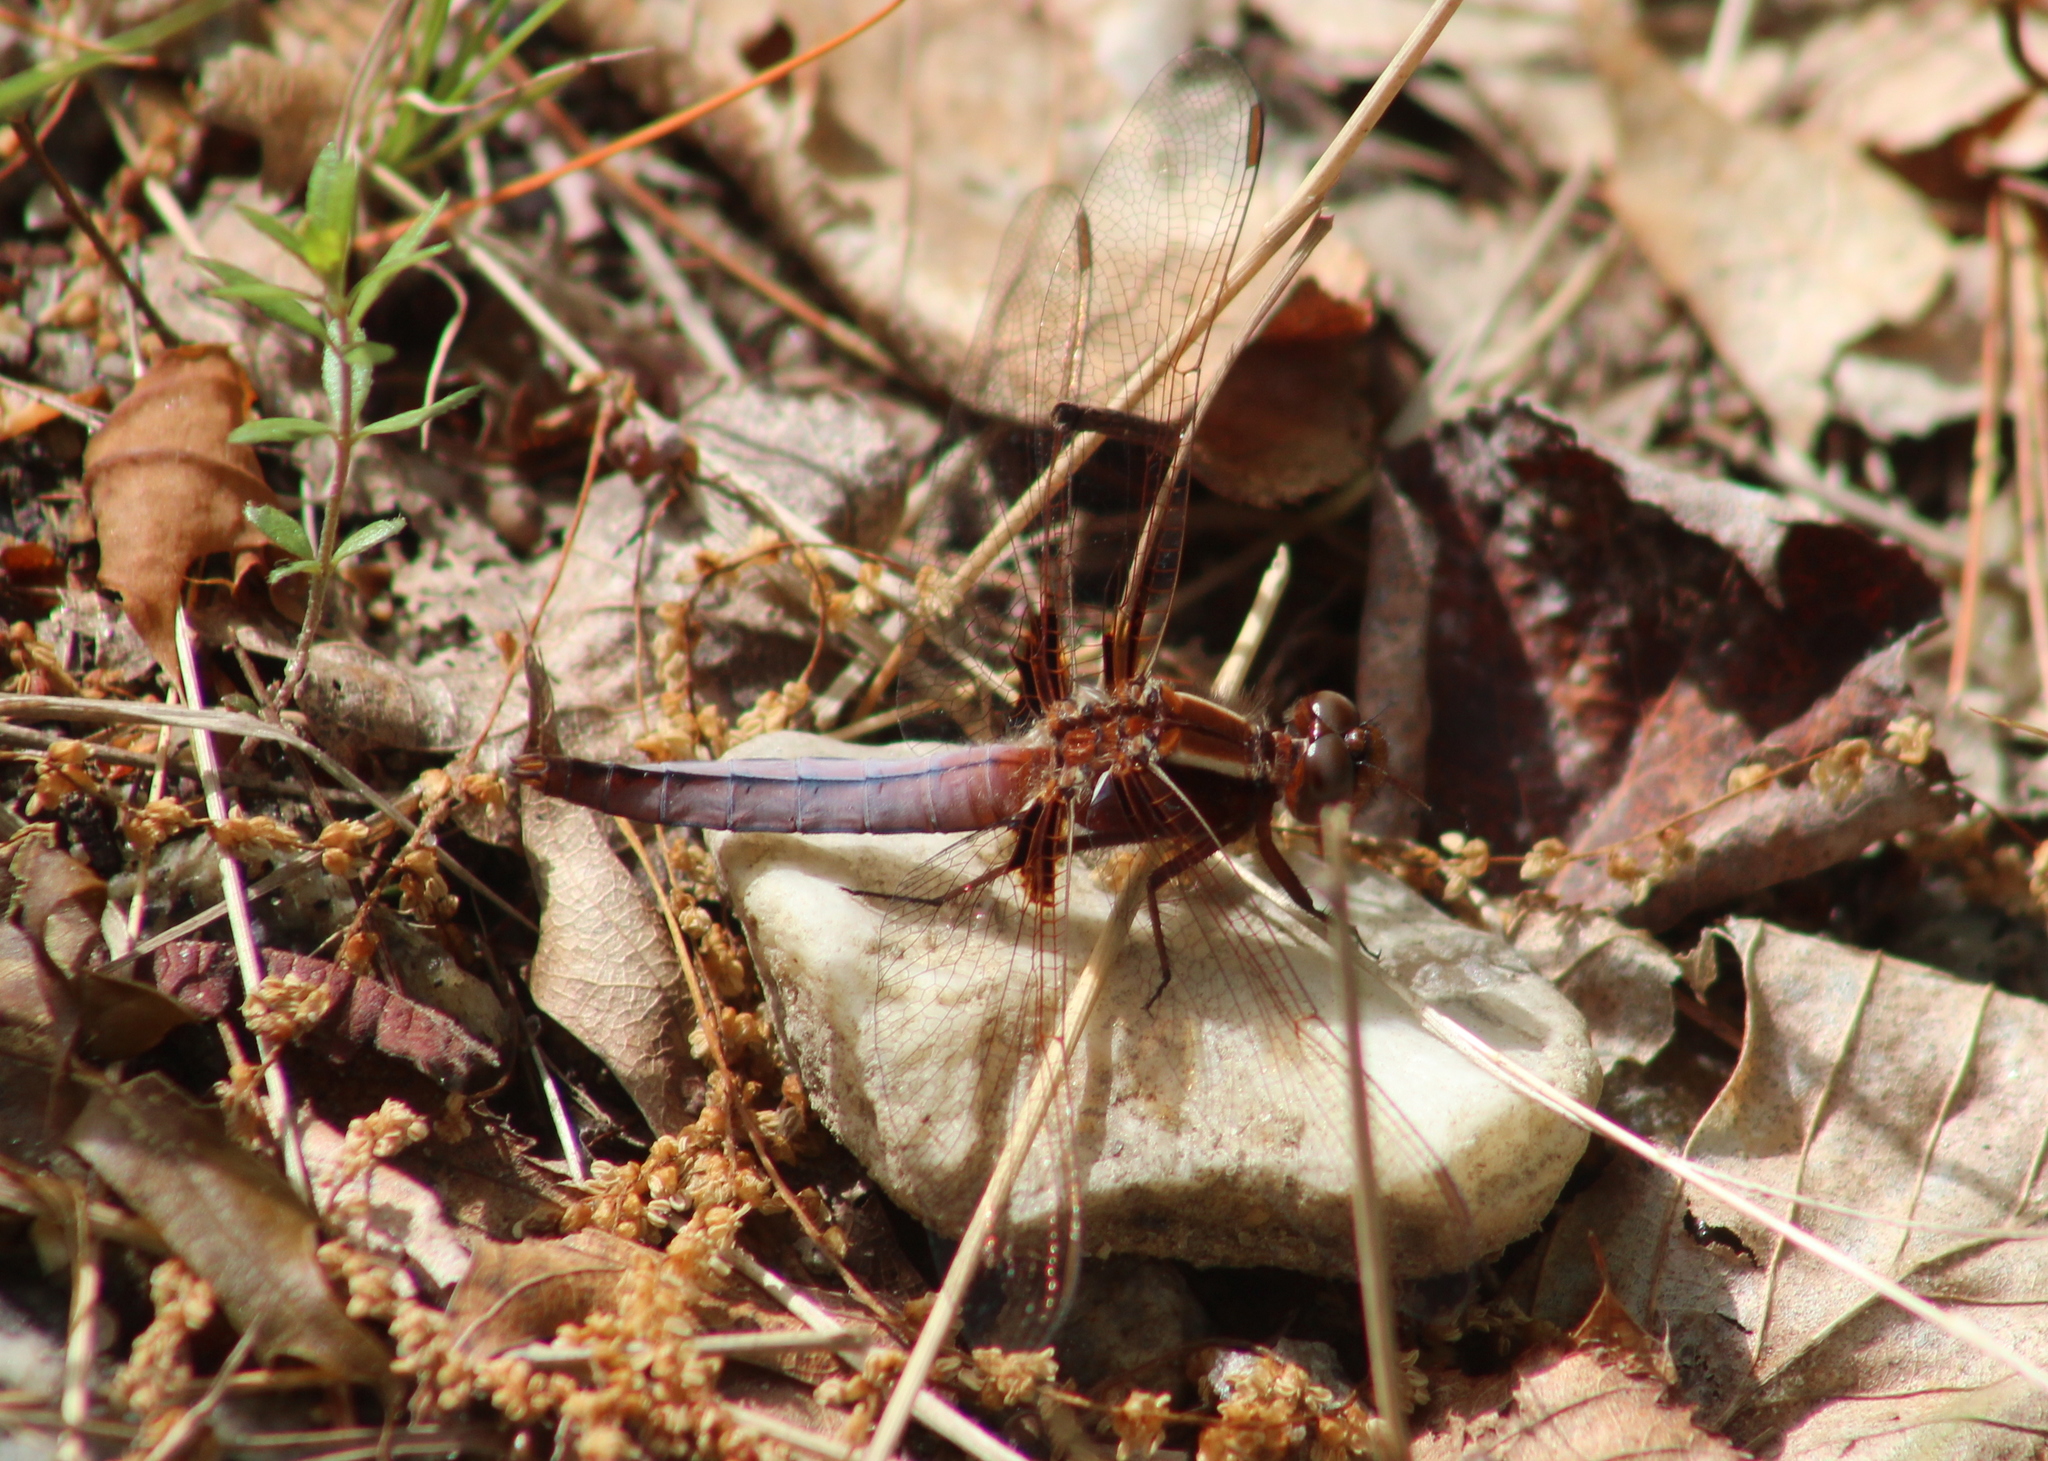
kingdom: Animalia
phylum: Arthropoda
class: Insecta
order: Odonata
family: Libellulidae
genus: Ladona
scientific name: Ladona exusta
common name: Libellule embrasée
